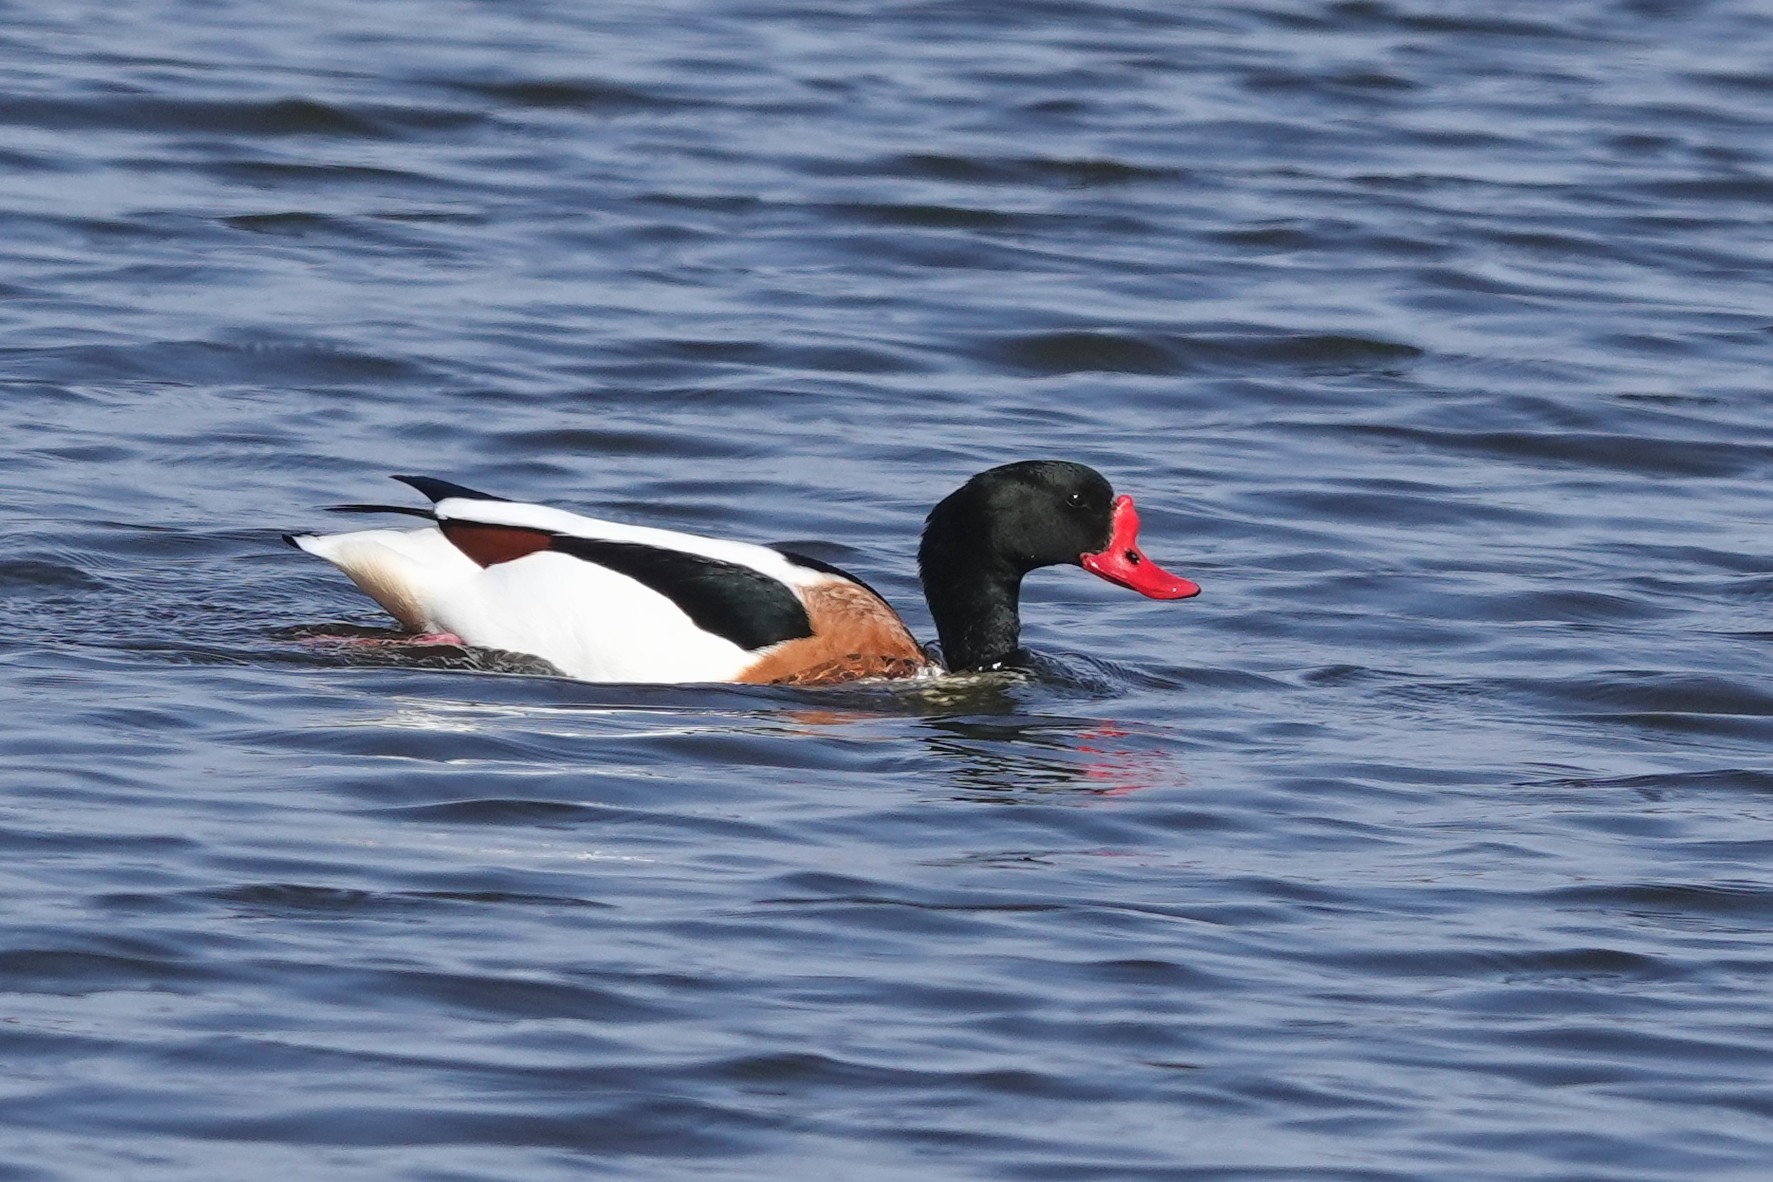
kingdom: Animalia
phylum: Chordata
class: Aves
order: Anseriformes
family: Anatidae
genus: Tadorna
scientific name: Tadorna tadorna
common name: Common shelduck
